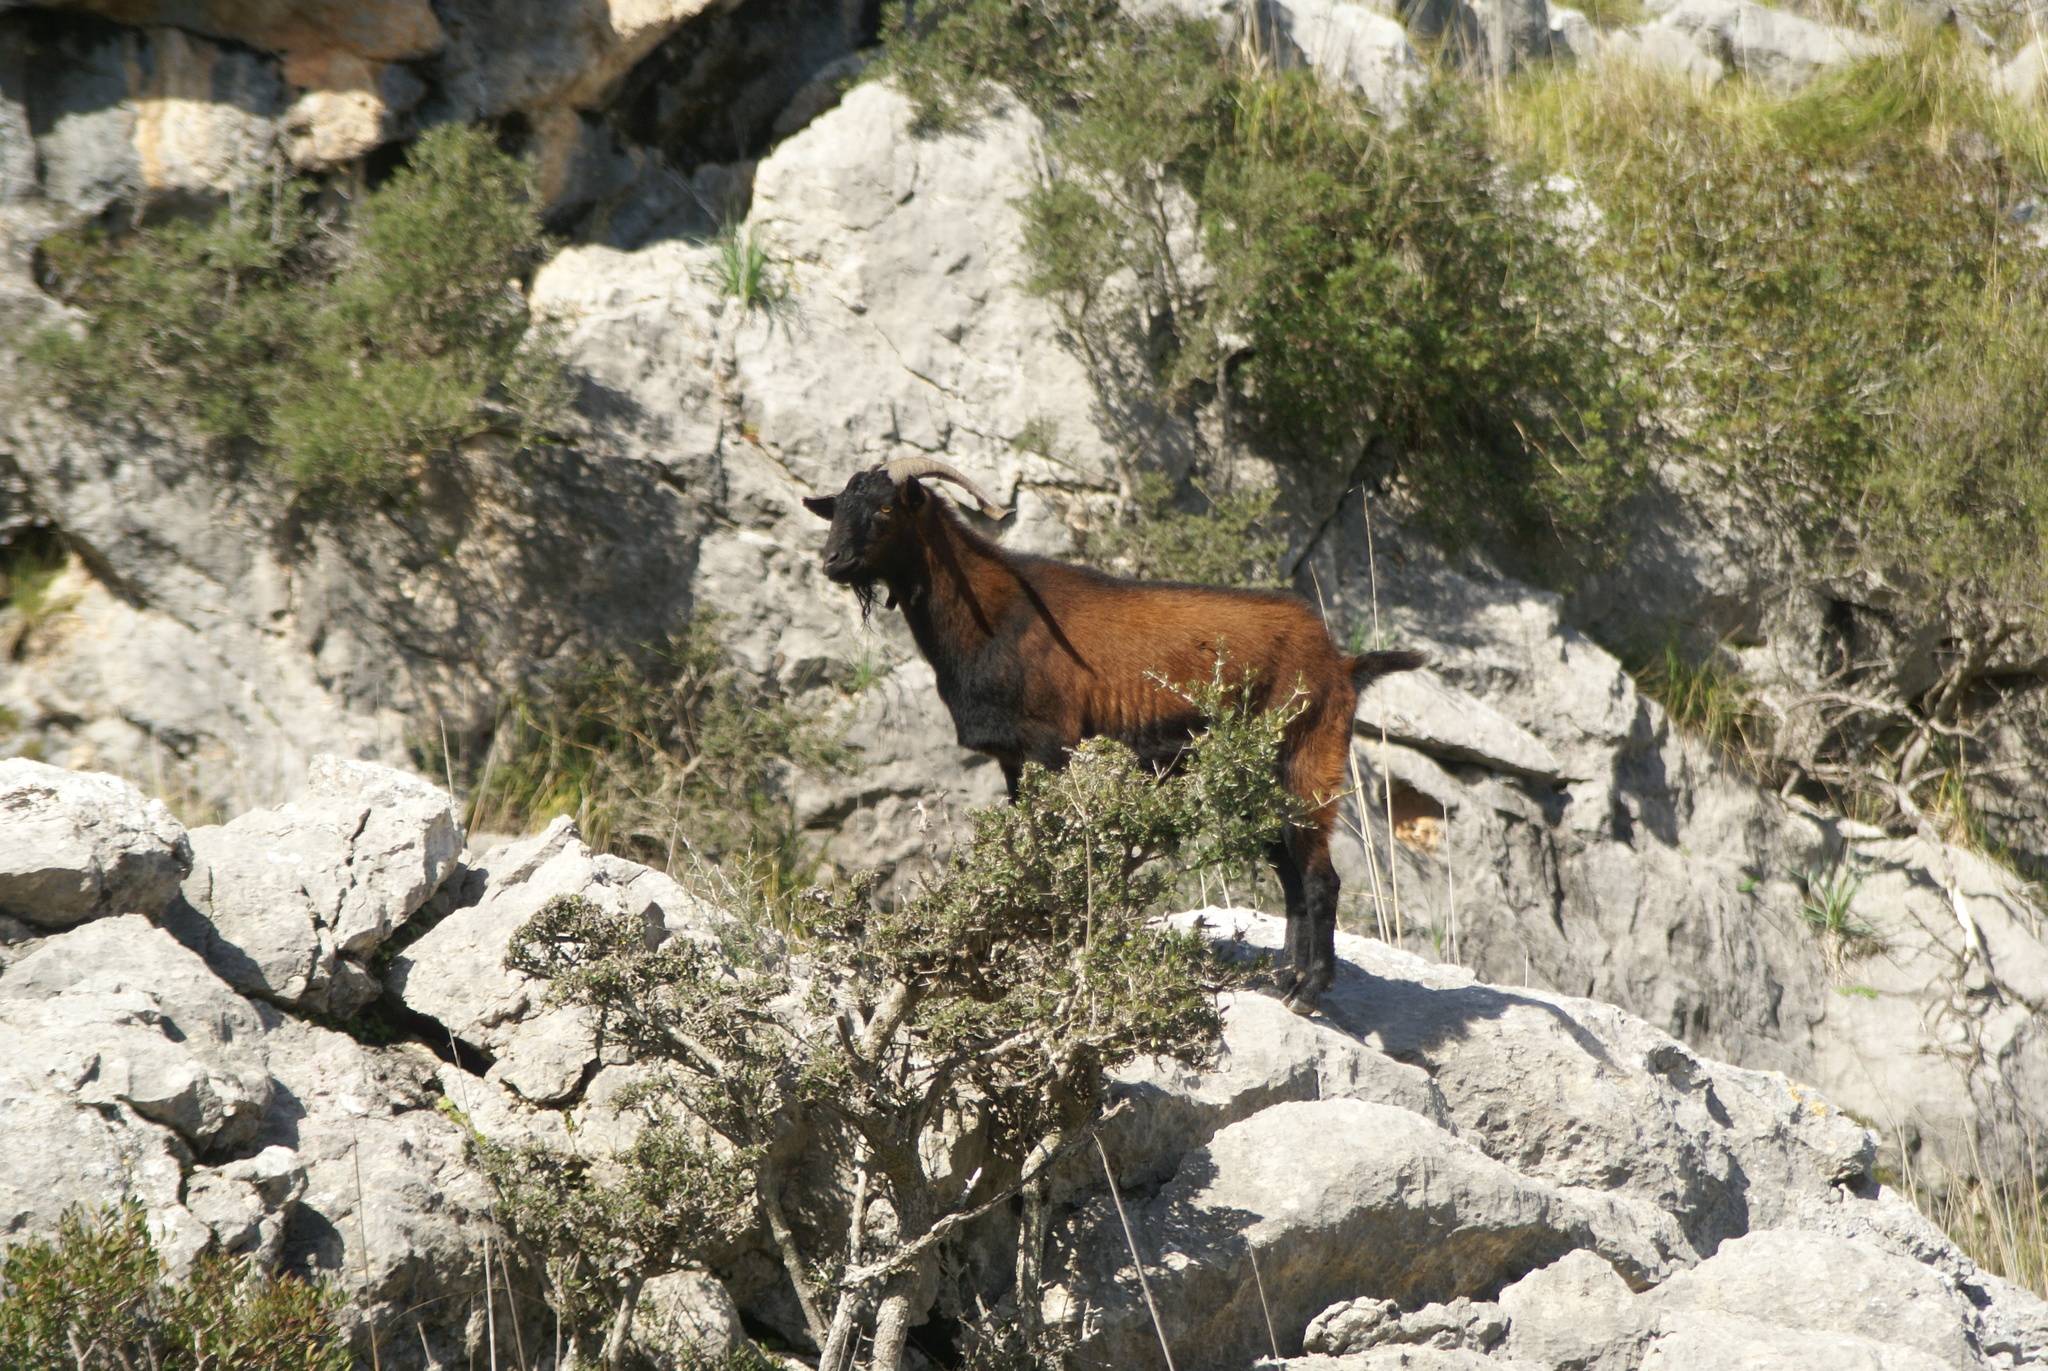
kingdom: Animalia
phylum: Chordata
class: Mammalia
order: Artiodactyla
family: Bovidae
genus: Capra
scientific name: Capra hircus
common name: Domestic goat
